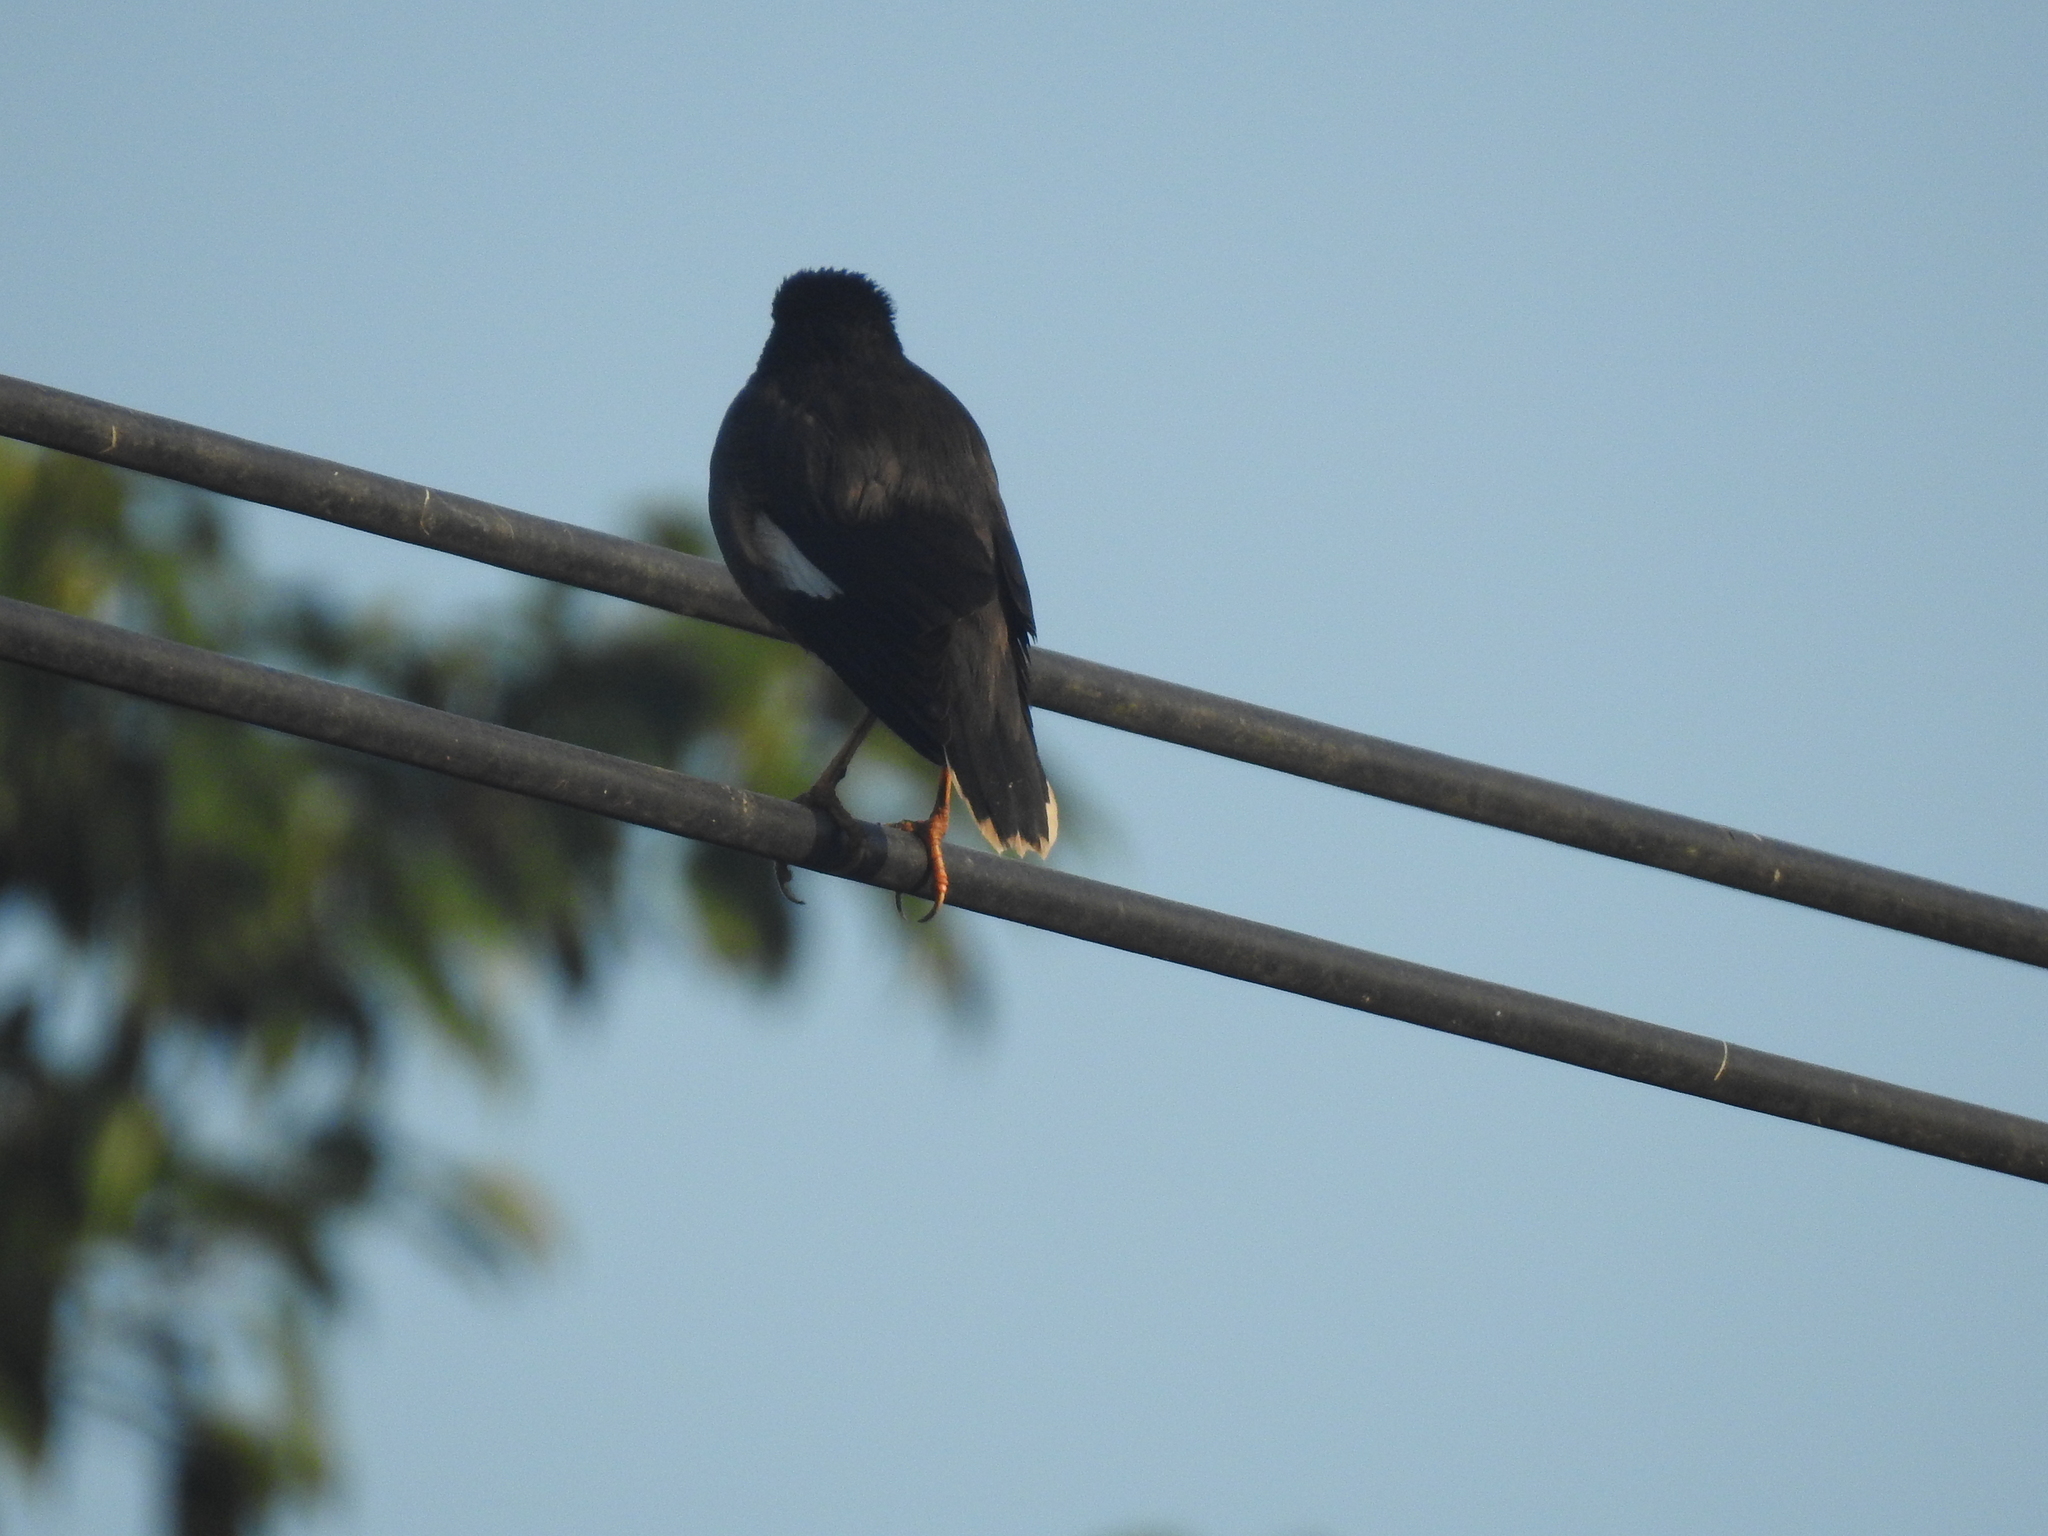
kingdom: Animalia
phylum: Chordata
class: Aves
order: Passeriformes
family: Sturnidae
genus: Acridotheres
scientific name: Acridotheres fuscus
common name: Jungle myna
